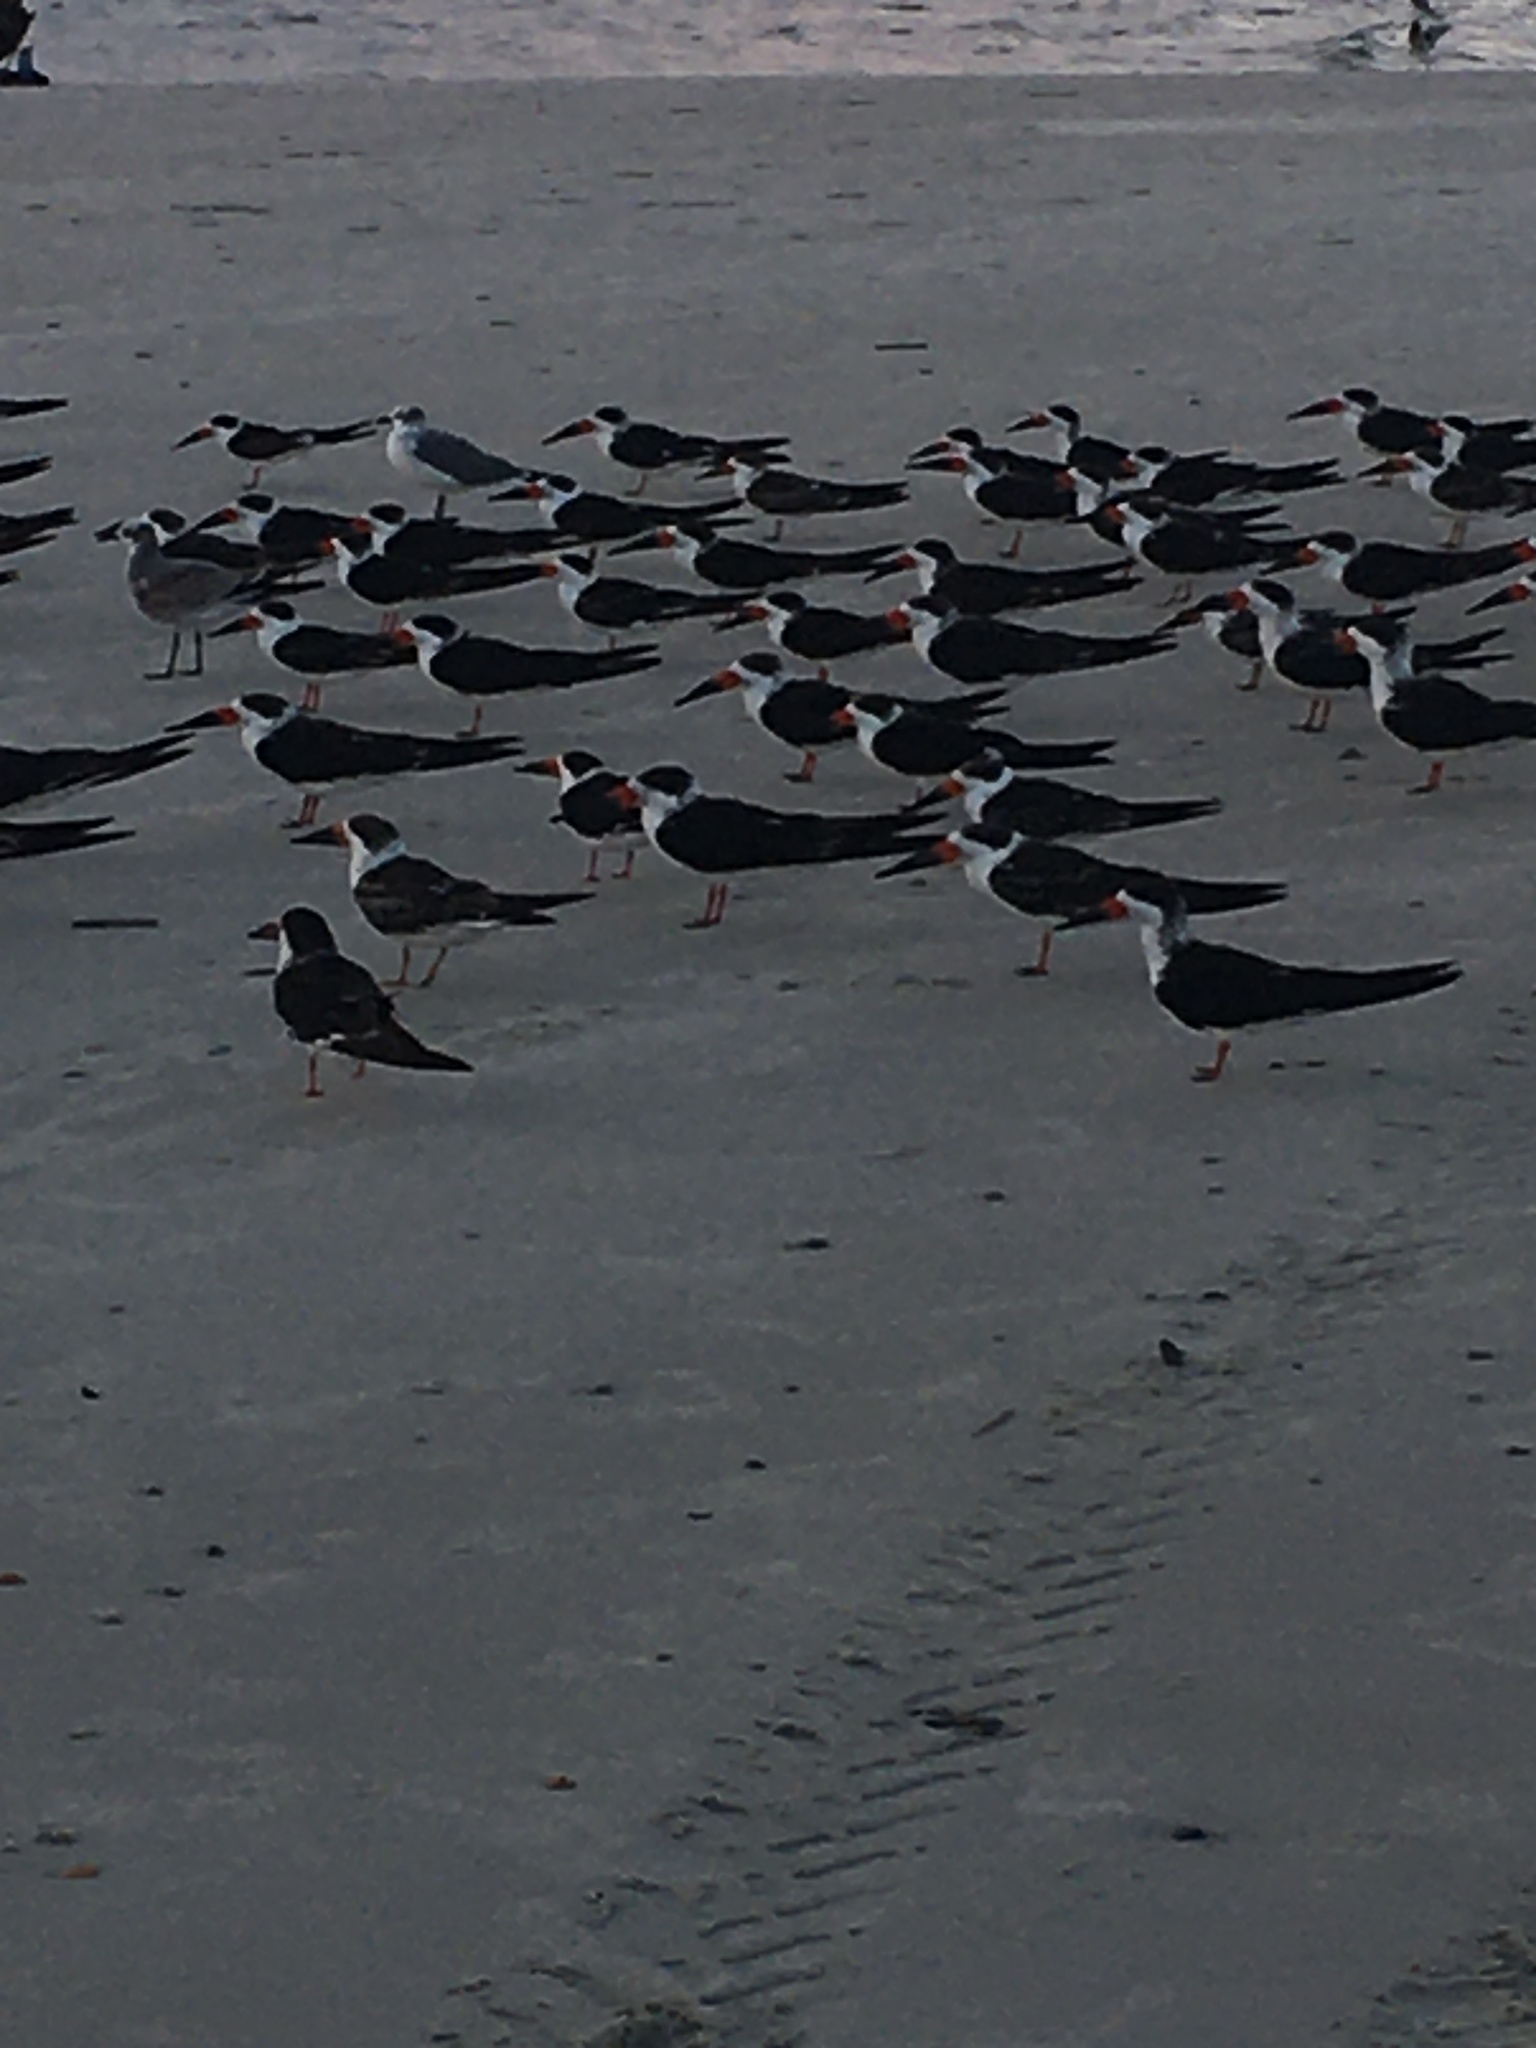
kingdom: Animalia
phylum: Chordata
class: Aves
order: Charadriiformes
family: Laridae
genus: Rynchops
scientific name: Rynchops niger
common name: Black skimmer
